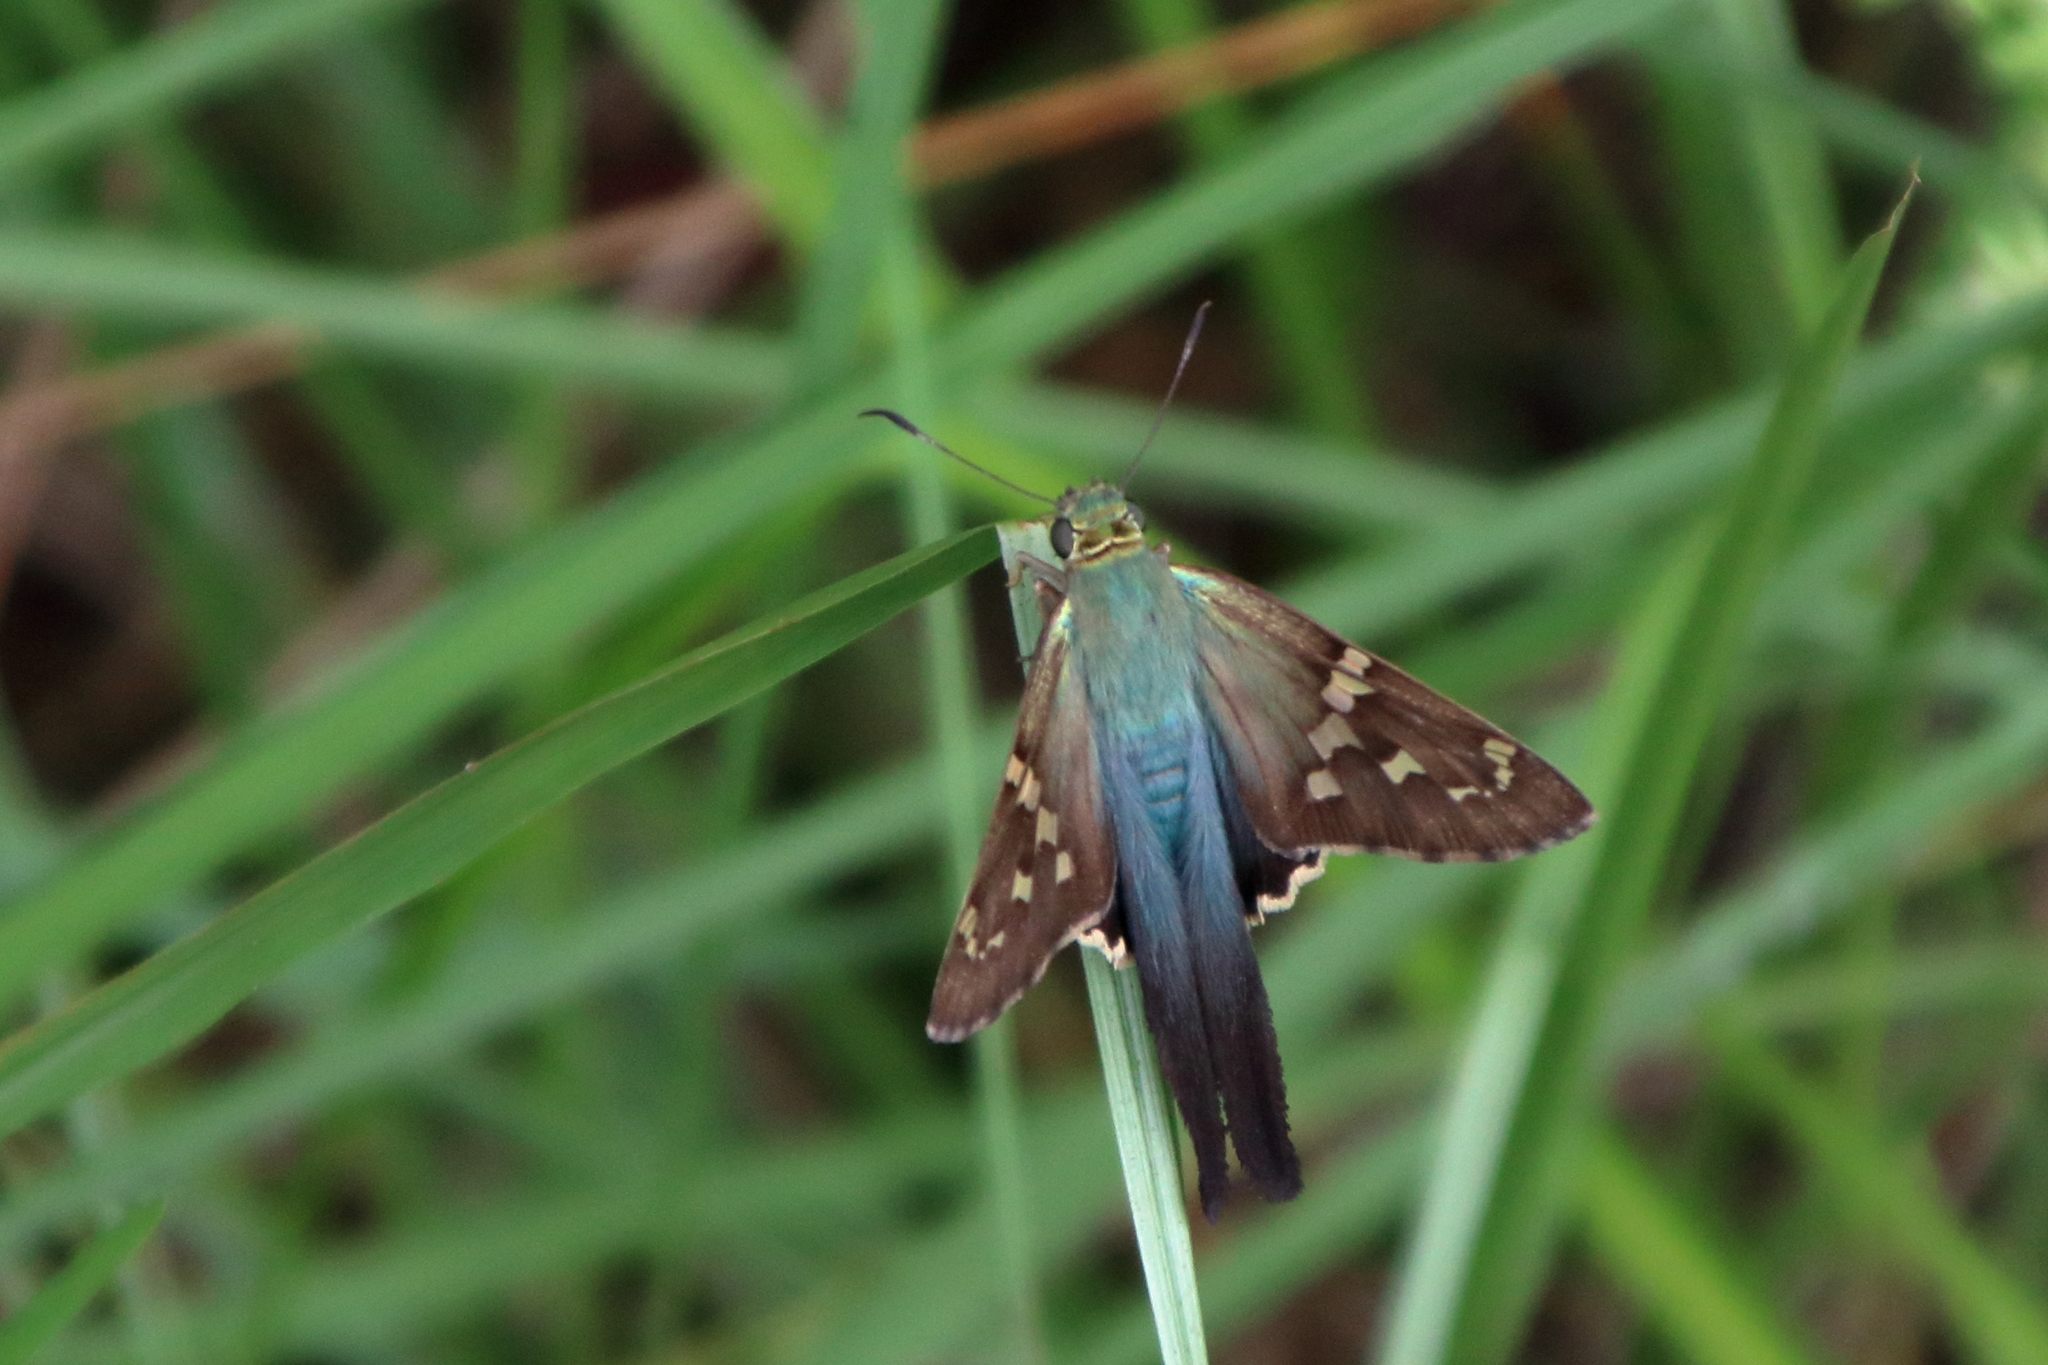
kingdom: Animalia
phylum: Arthropoda
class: Insecta
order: Lepidoptera
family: Hesperiidae
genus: Urbanus
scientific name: Urbanus proteus
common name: Long-tailed skipper
